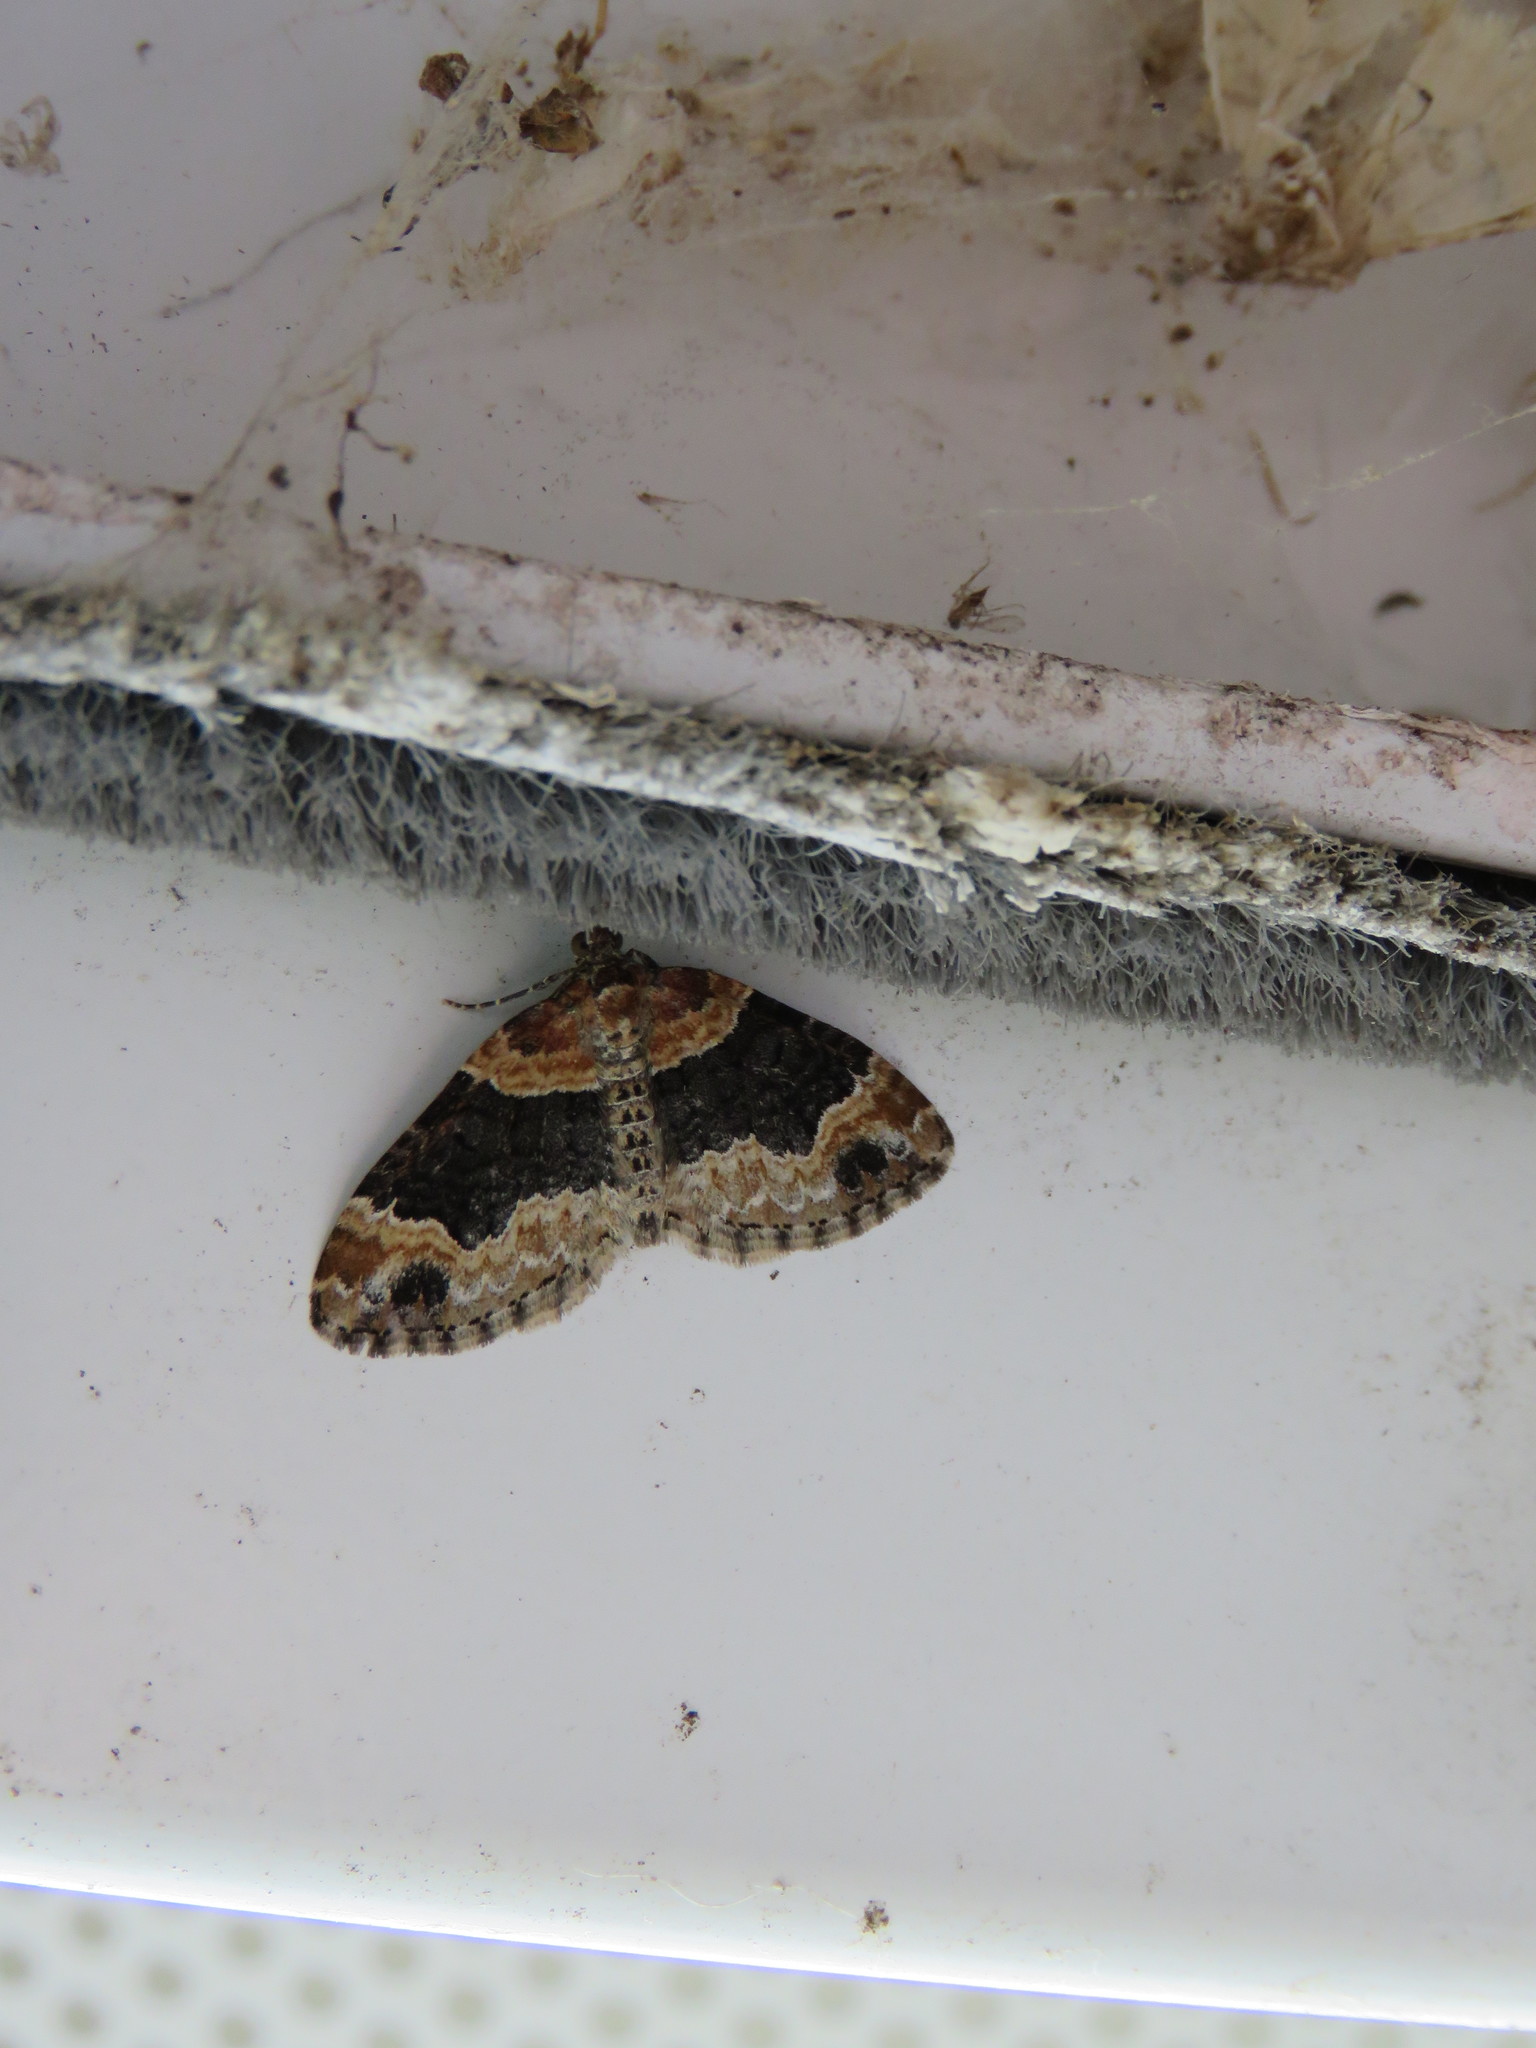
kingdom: Animalia
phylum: Arthropoda
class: Insecta
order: Lepidoptera
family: Geometridae
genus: Xanthorhoe
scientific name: Xanthorhoe ferrugata
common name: Dark-barred twin-spot carpet
